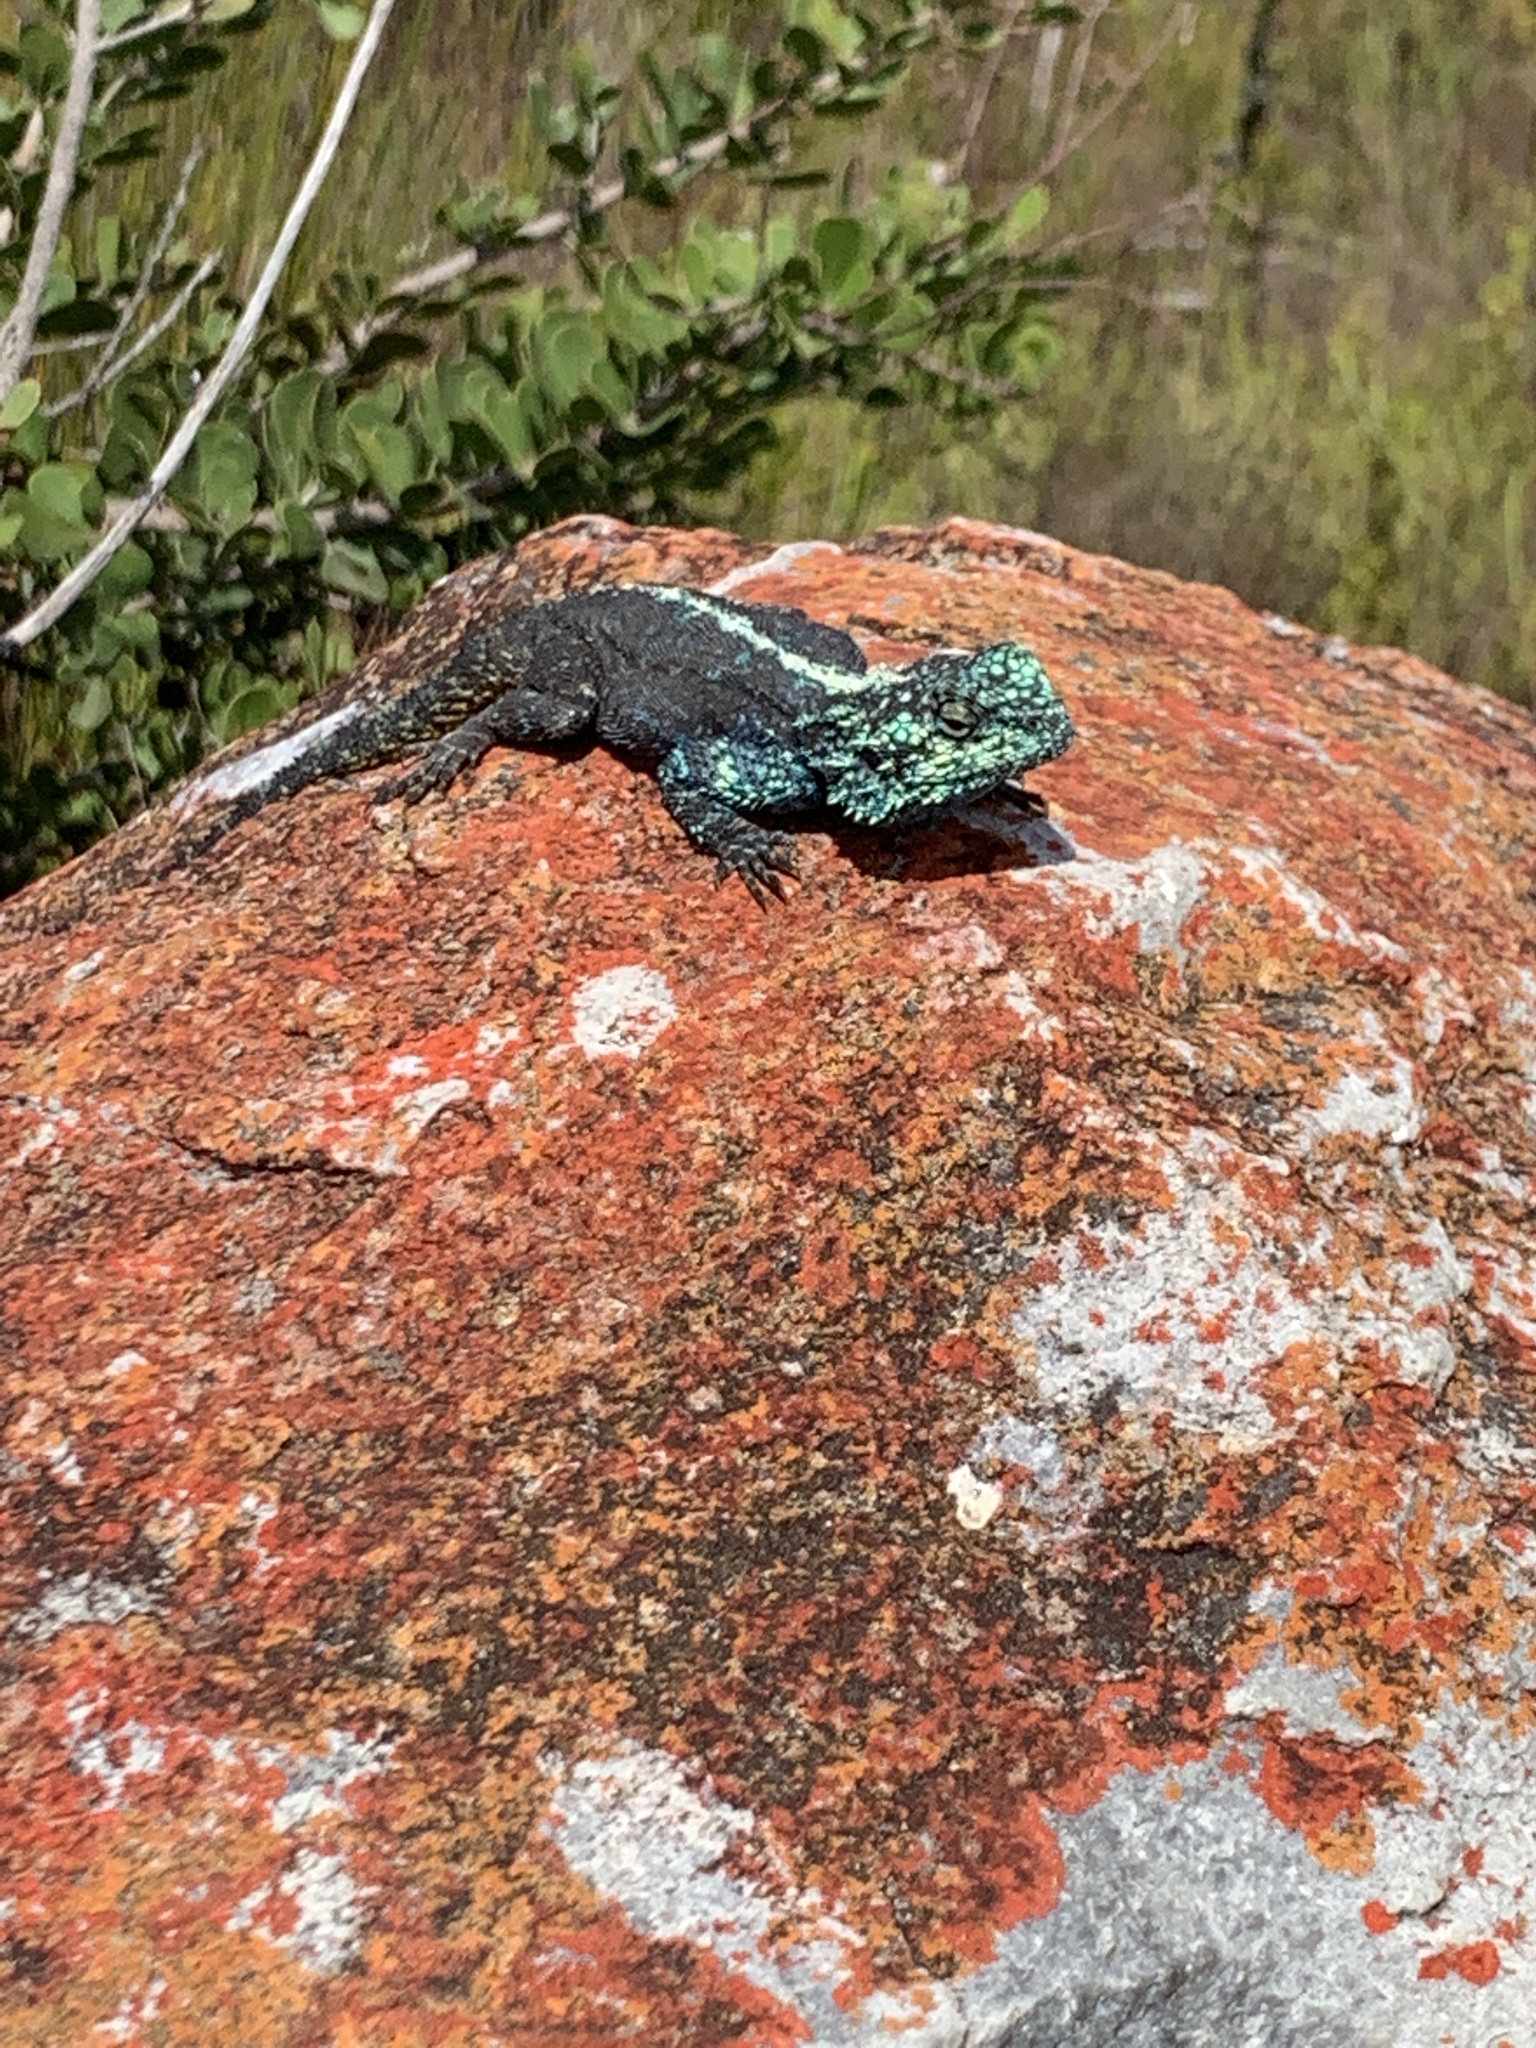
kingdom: Animalia
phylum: Chordata
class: Squamata
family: Agamidae
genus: Agama
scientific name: Agama atra
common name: Southern african rock agama
